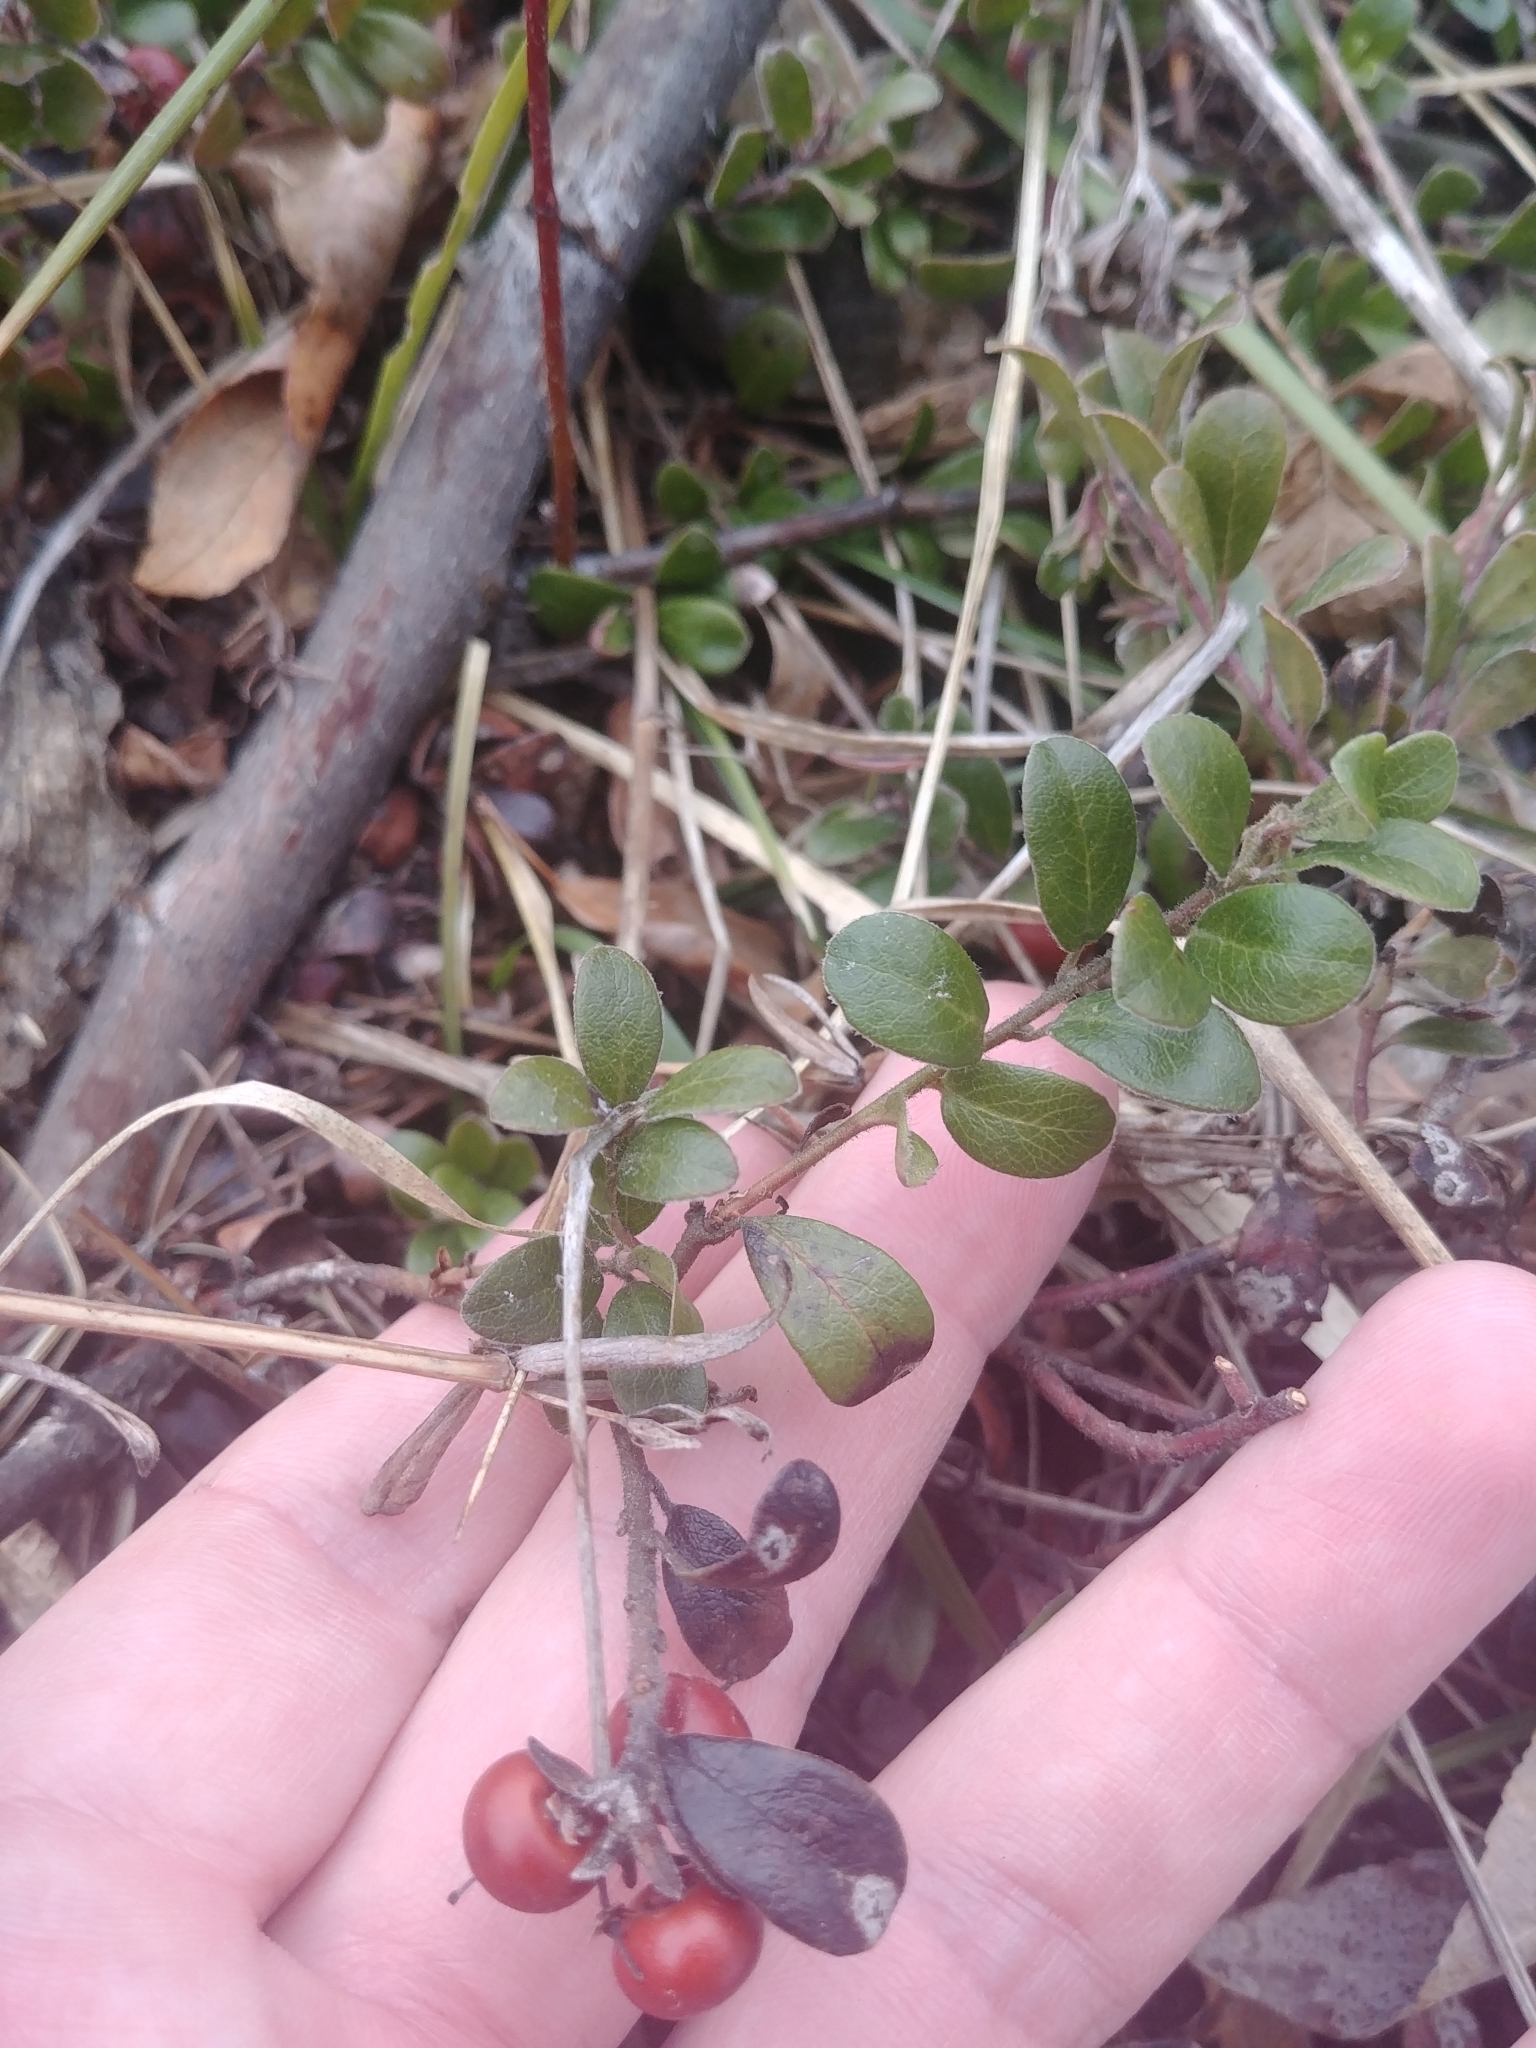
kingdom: Plantae
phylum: Tracheophyta
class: Magnoliopsida
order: Ericales
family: Ericaceae
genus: Arctostaphylos
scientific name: Arctostaphylos uva-ursi
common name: Bearberry
